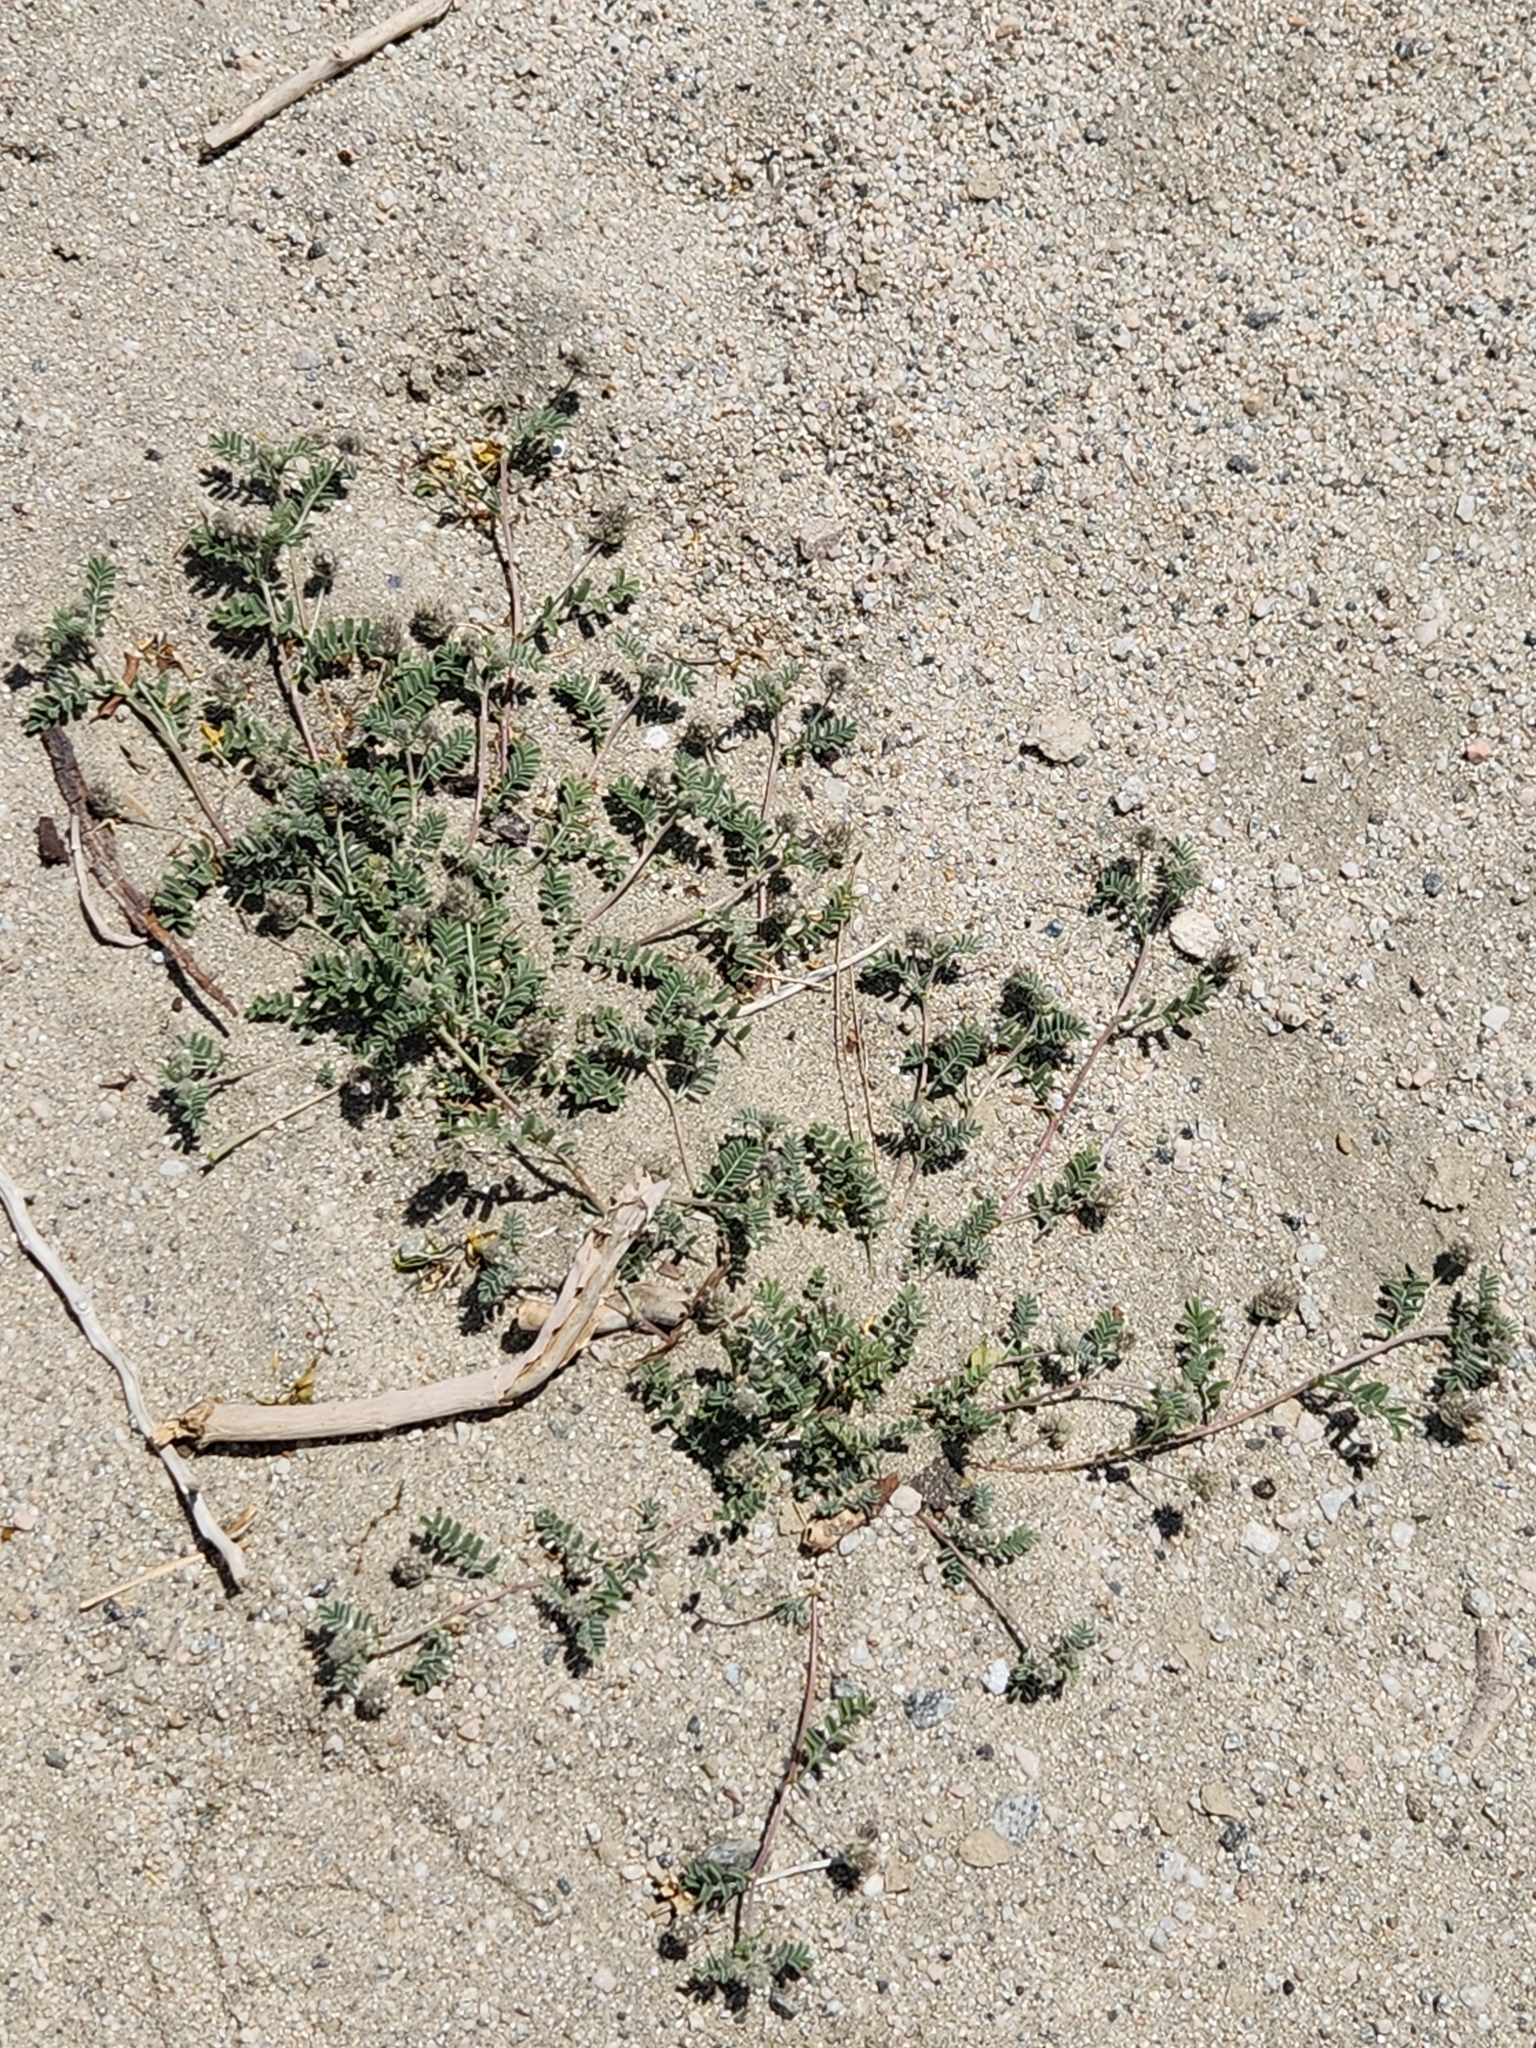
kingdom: Plantae
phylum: Tracheophyta
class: Magnoliopsida
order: Fabales
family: Fabaceae
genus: Acmispon
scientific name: Acmispon strigosus
